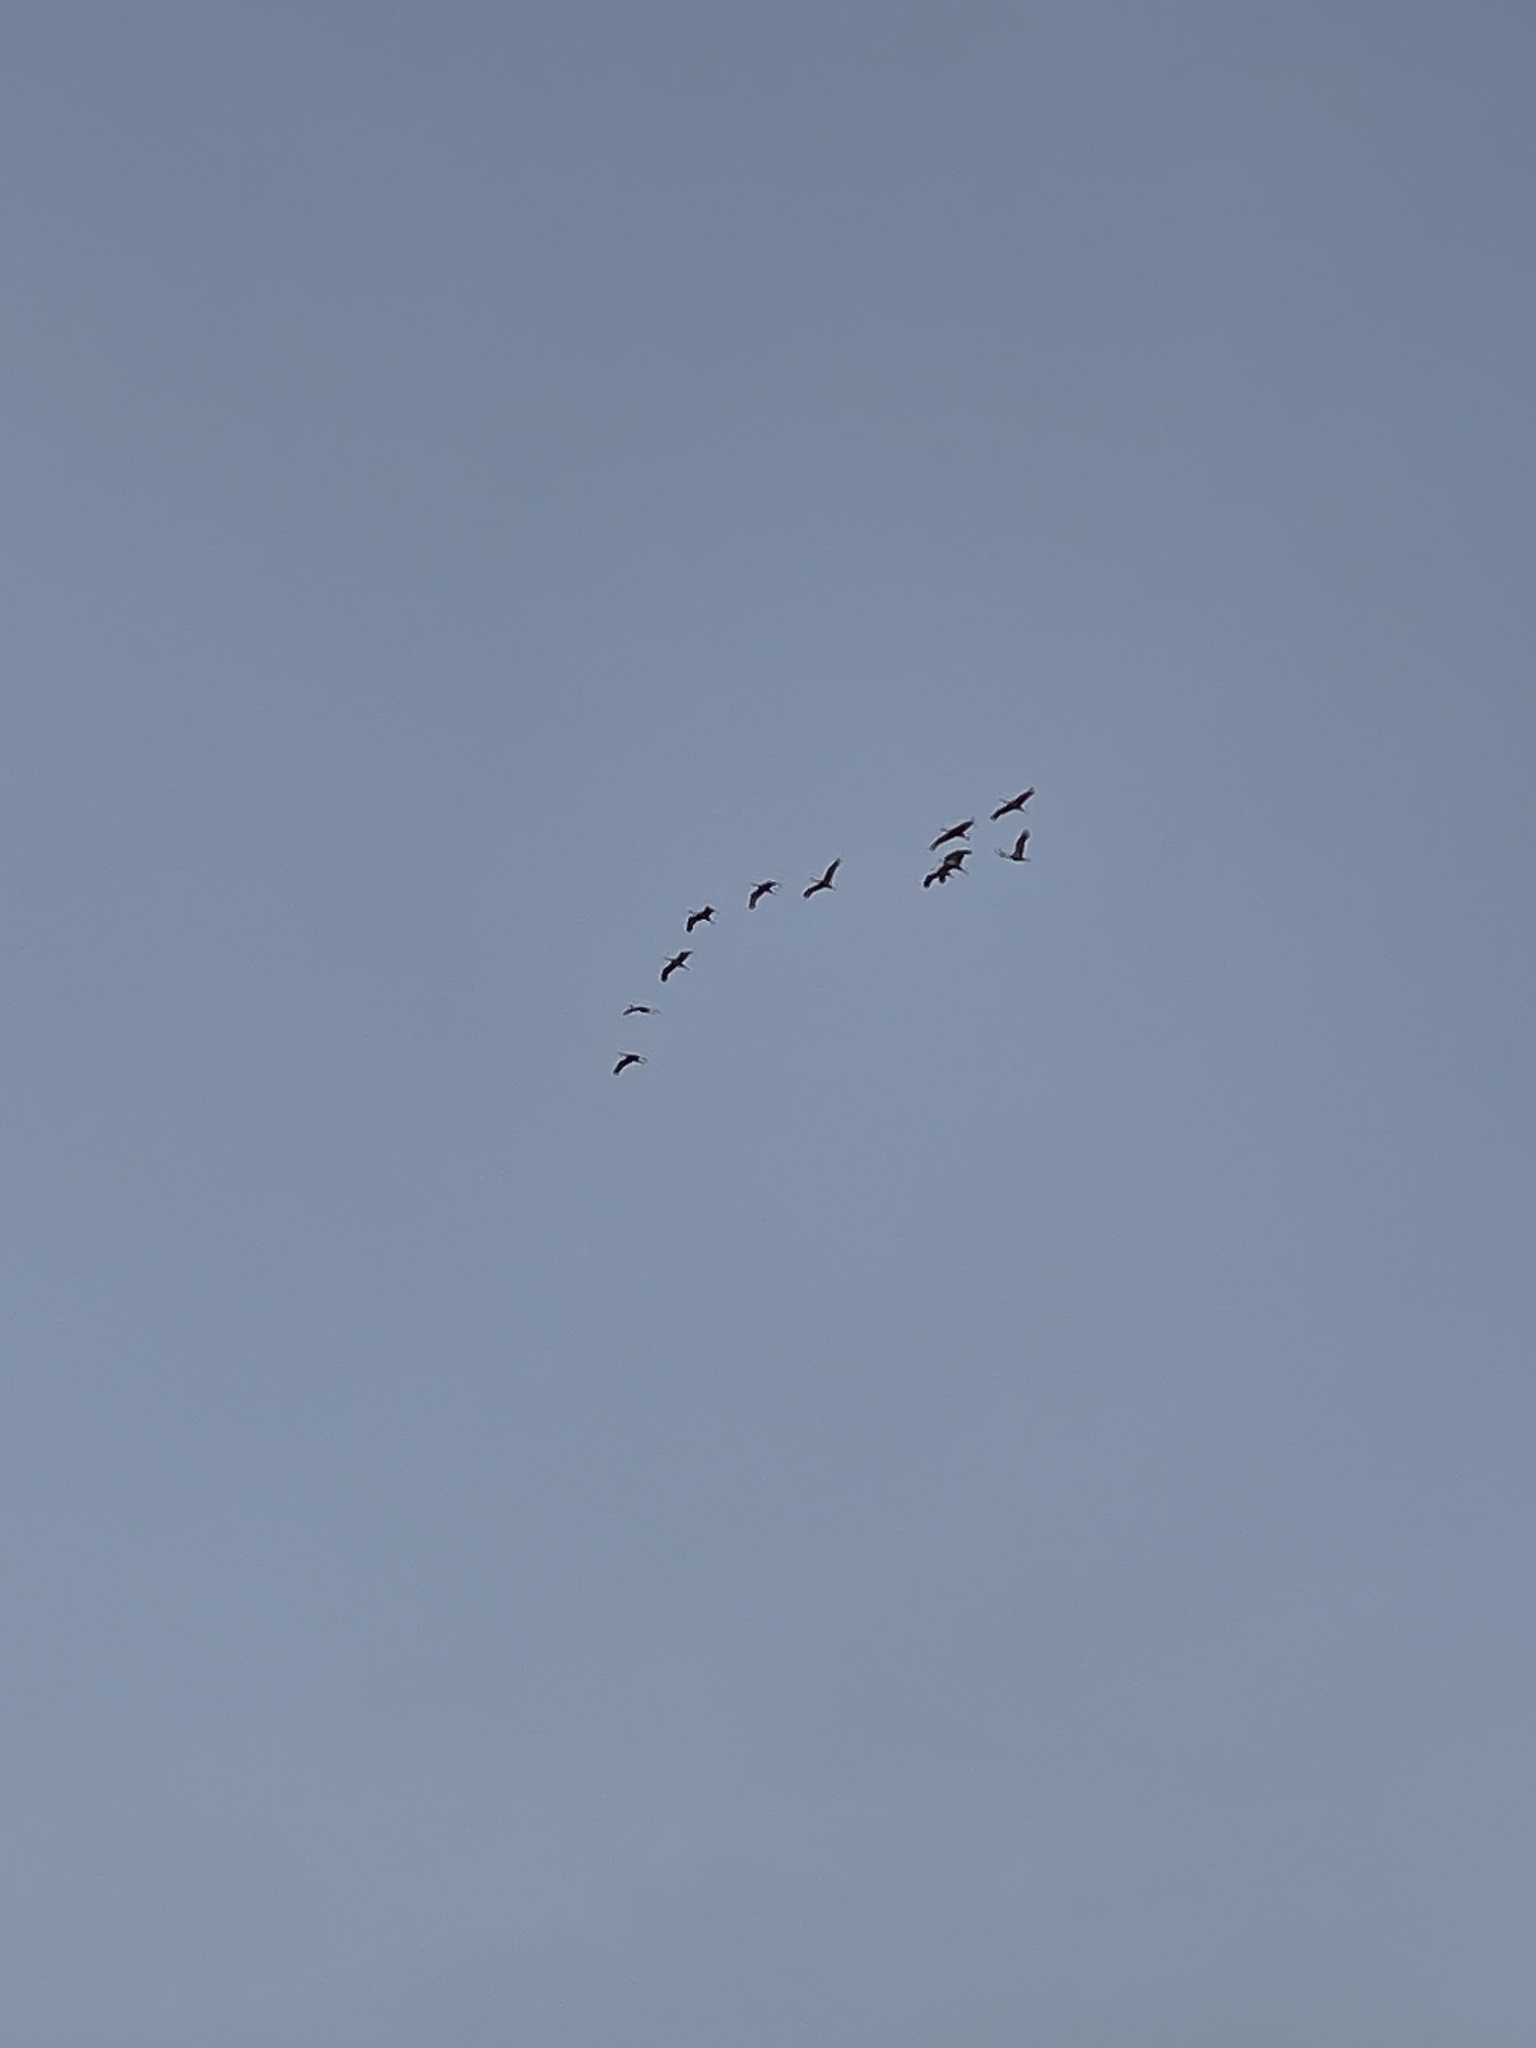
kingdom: Animalia
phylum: Chordata
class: Aves
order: Gruiformes
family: Gruidae
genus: Grus
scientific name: Grus canadensis
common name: Sandhill crane
